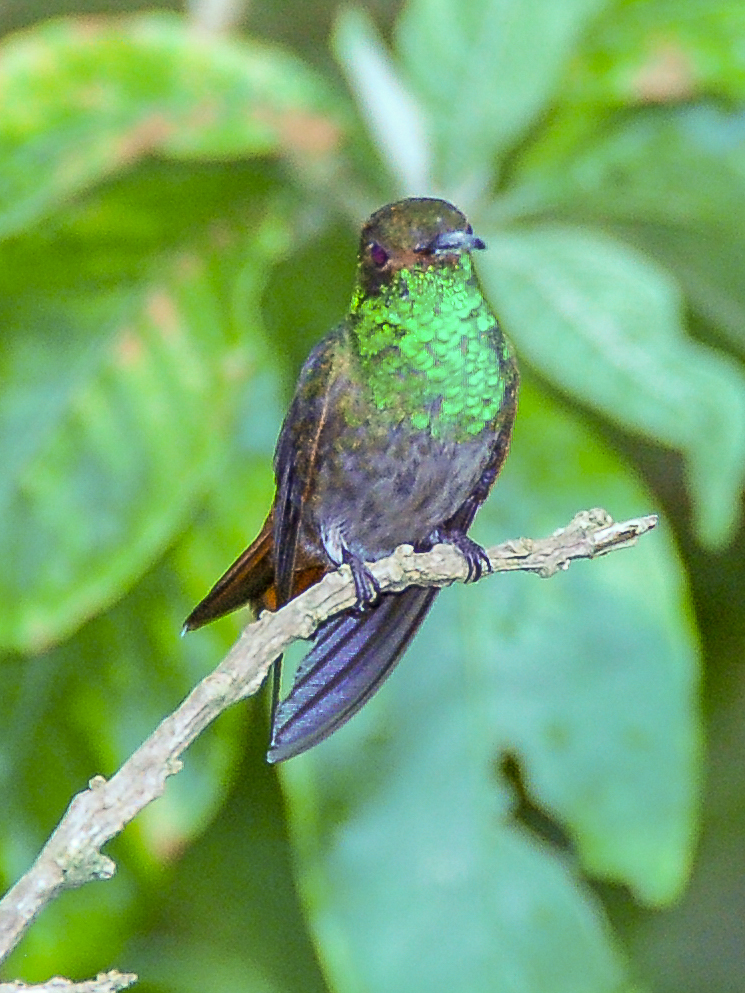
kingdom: Animalia
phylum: Chordata
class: Aves
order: Apodiformes
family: Trochilidae
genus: Amazilia
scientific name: Amazilia tzacatl
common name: Rufous-tailed hummingbird
